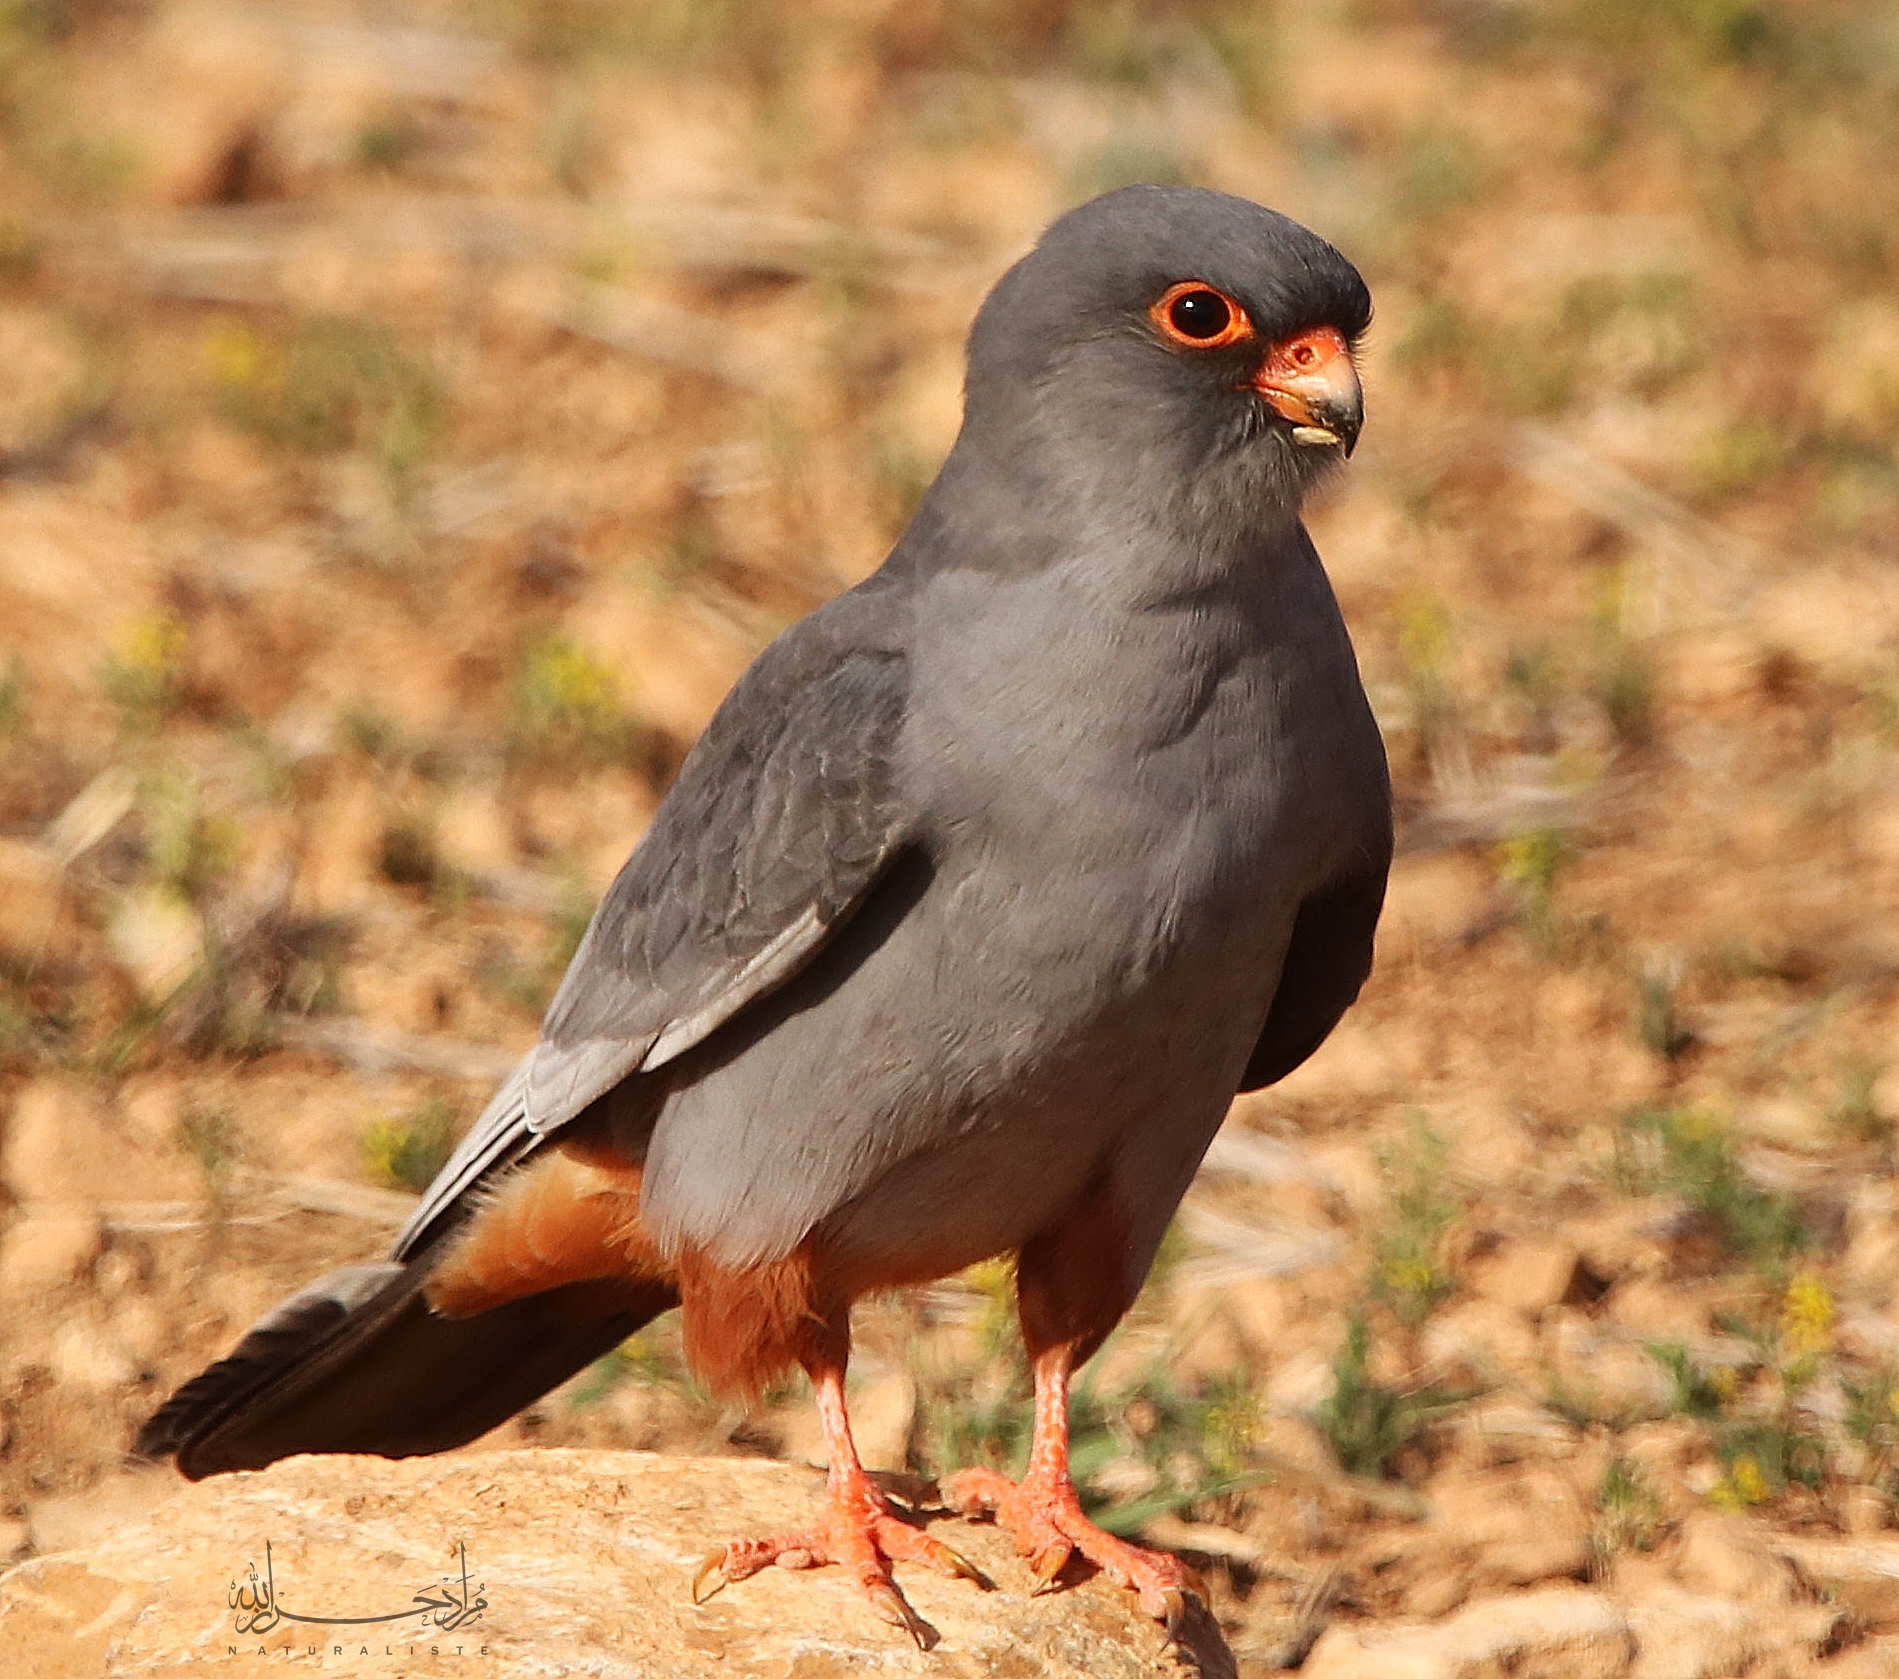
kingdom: Animalia
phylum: Chordata
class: Aves
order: Falconiformes
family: Falconidae
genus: Falco
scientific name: Falco vespertinus
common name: Red-footed falcon
